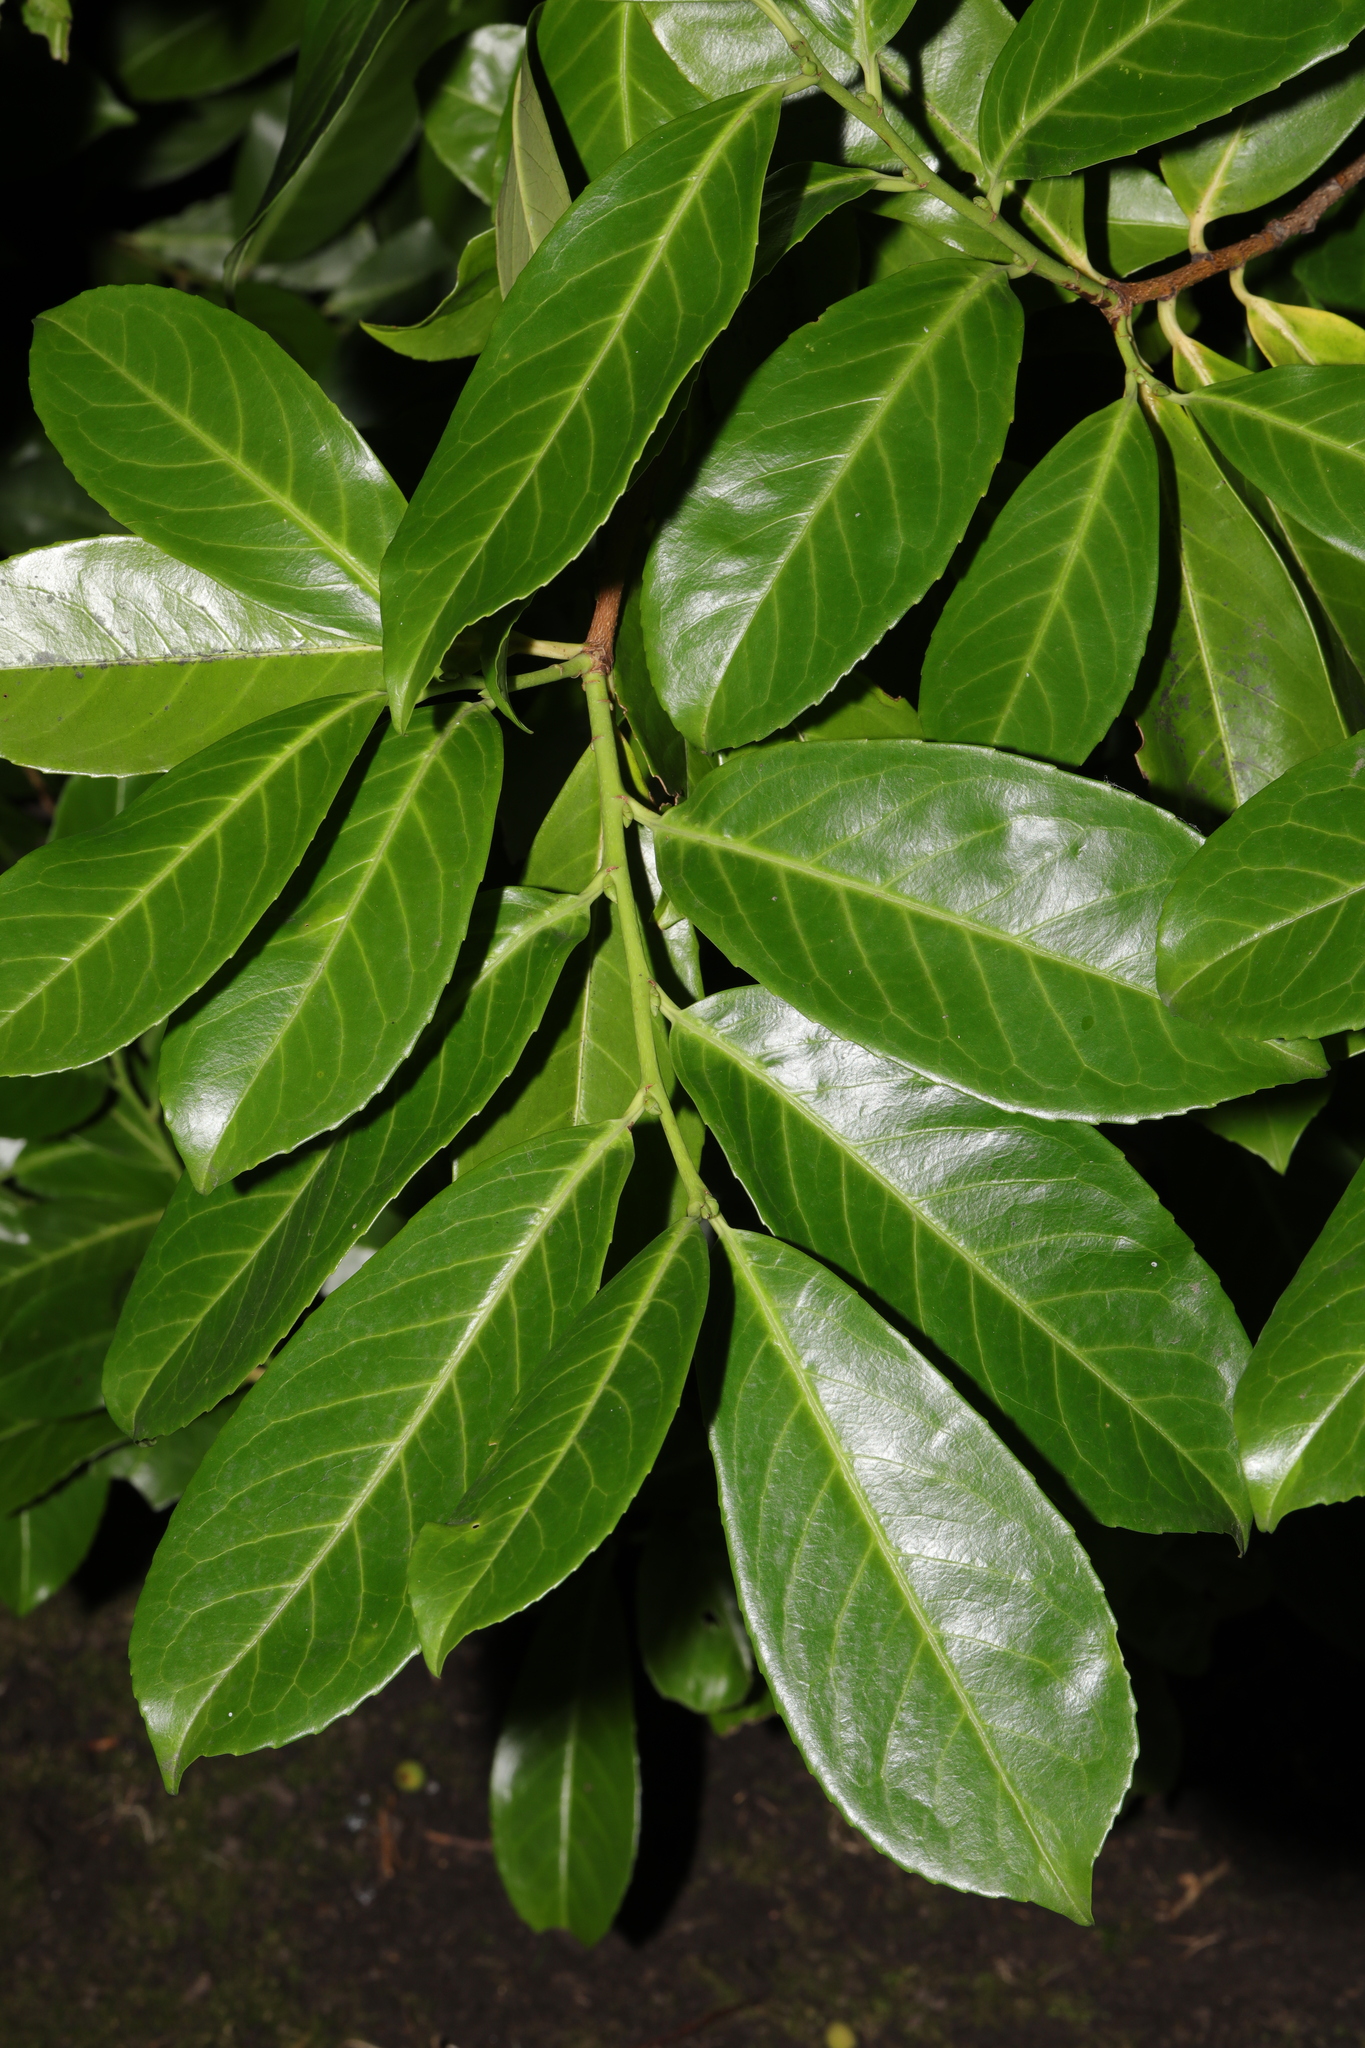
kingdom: Plantae
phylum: Tracheophyta
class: Magnoliopsida
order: Rosales
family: Rosaceae
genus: Prunus
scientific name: Prunus laurocerasus
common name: Cherry laurel
